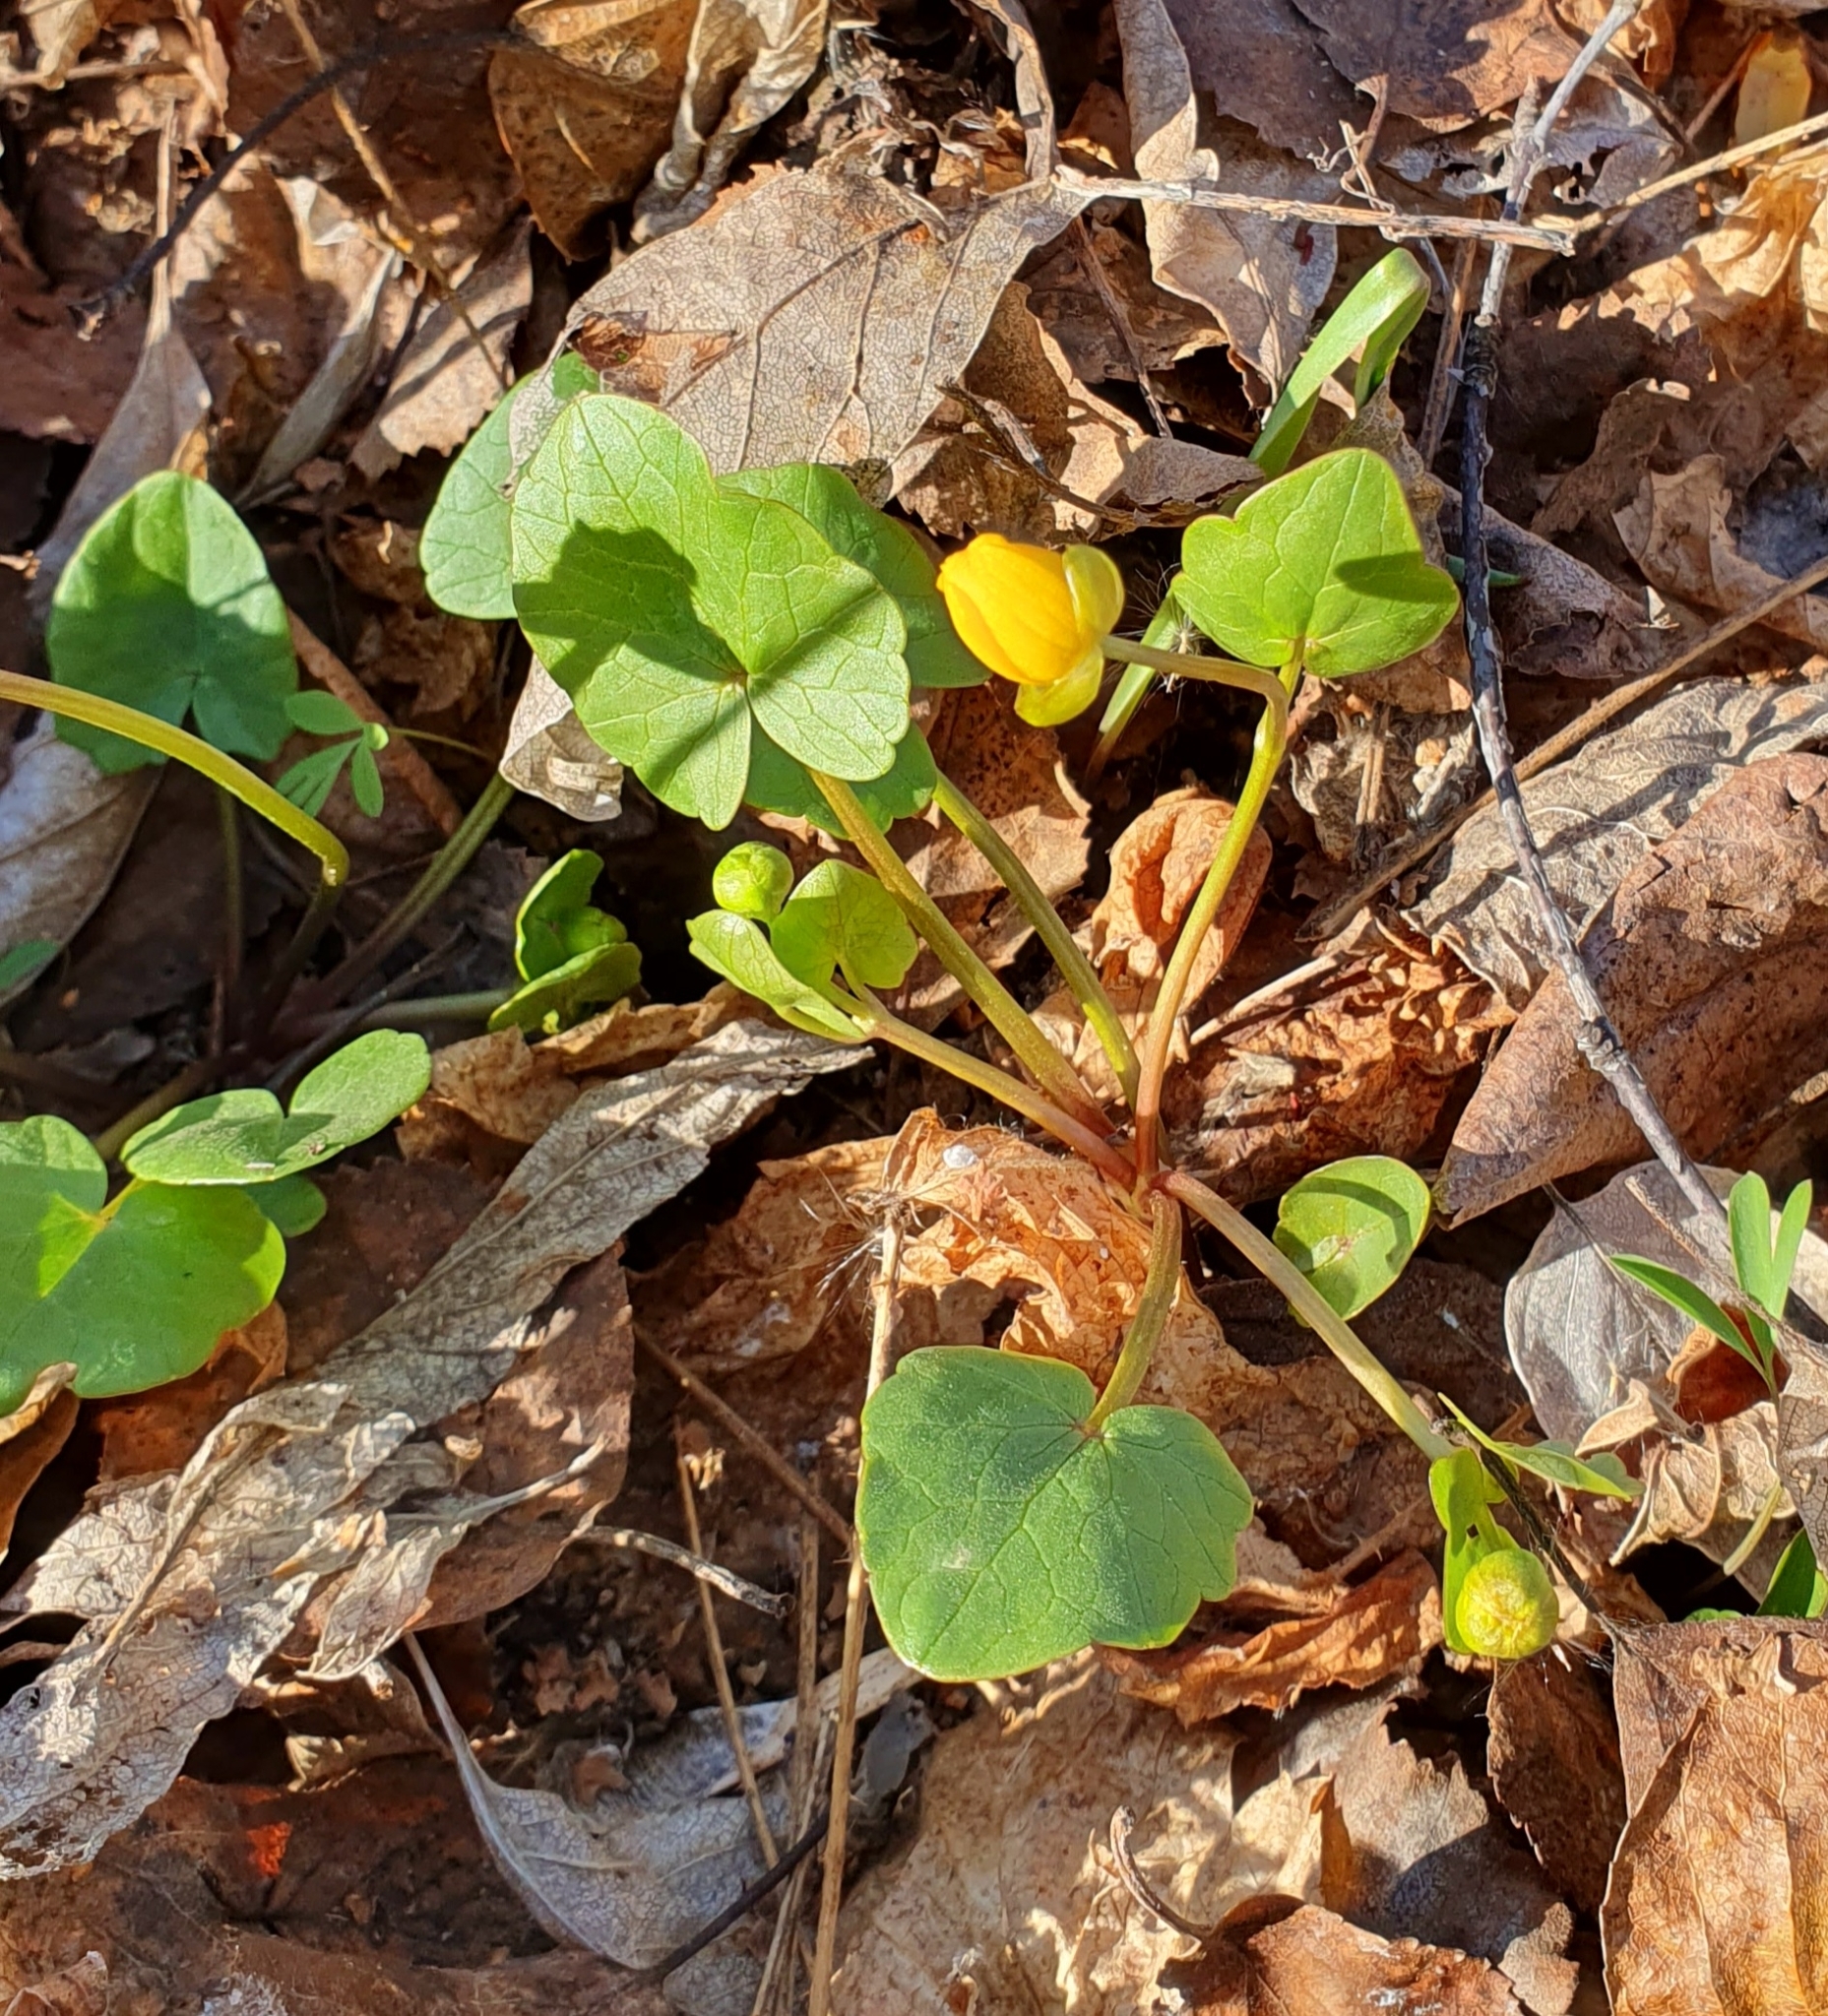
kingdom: Plantae
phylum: Tracheophyta
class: Magnoliopsida
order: Ranunculales
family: Ranunculaceae
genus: Ficaria
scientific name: Ficaria verna
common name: Lesser celandine
